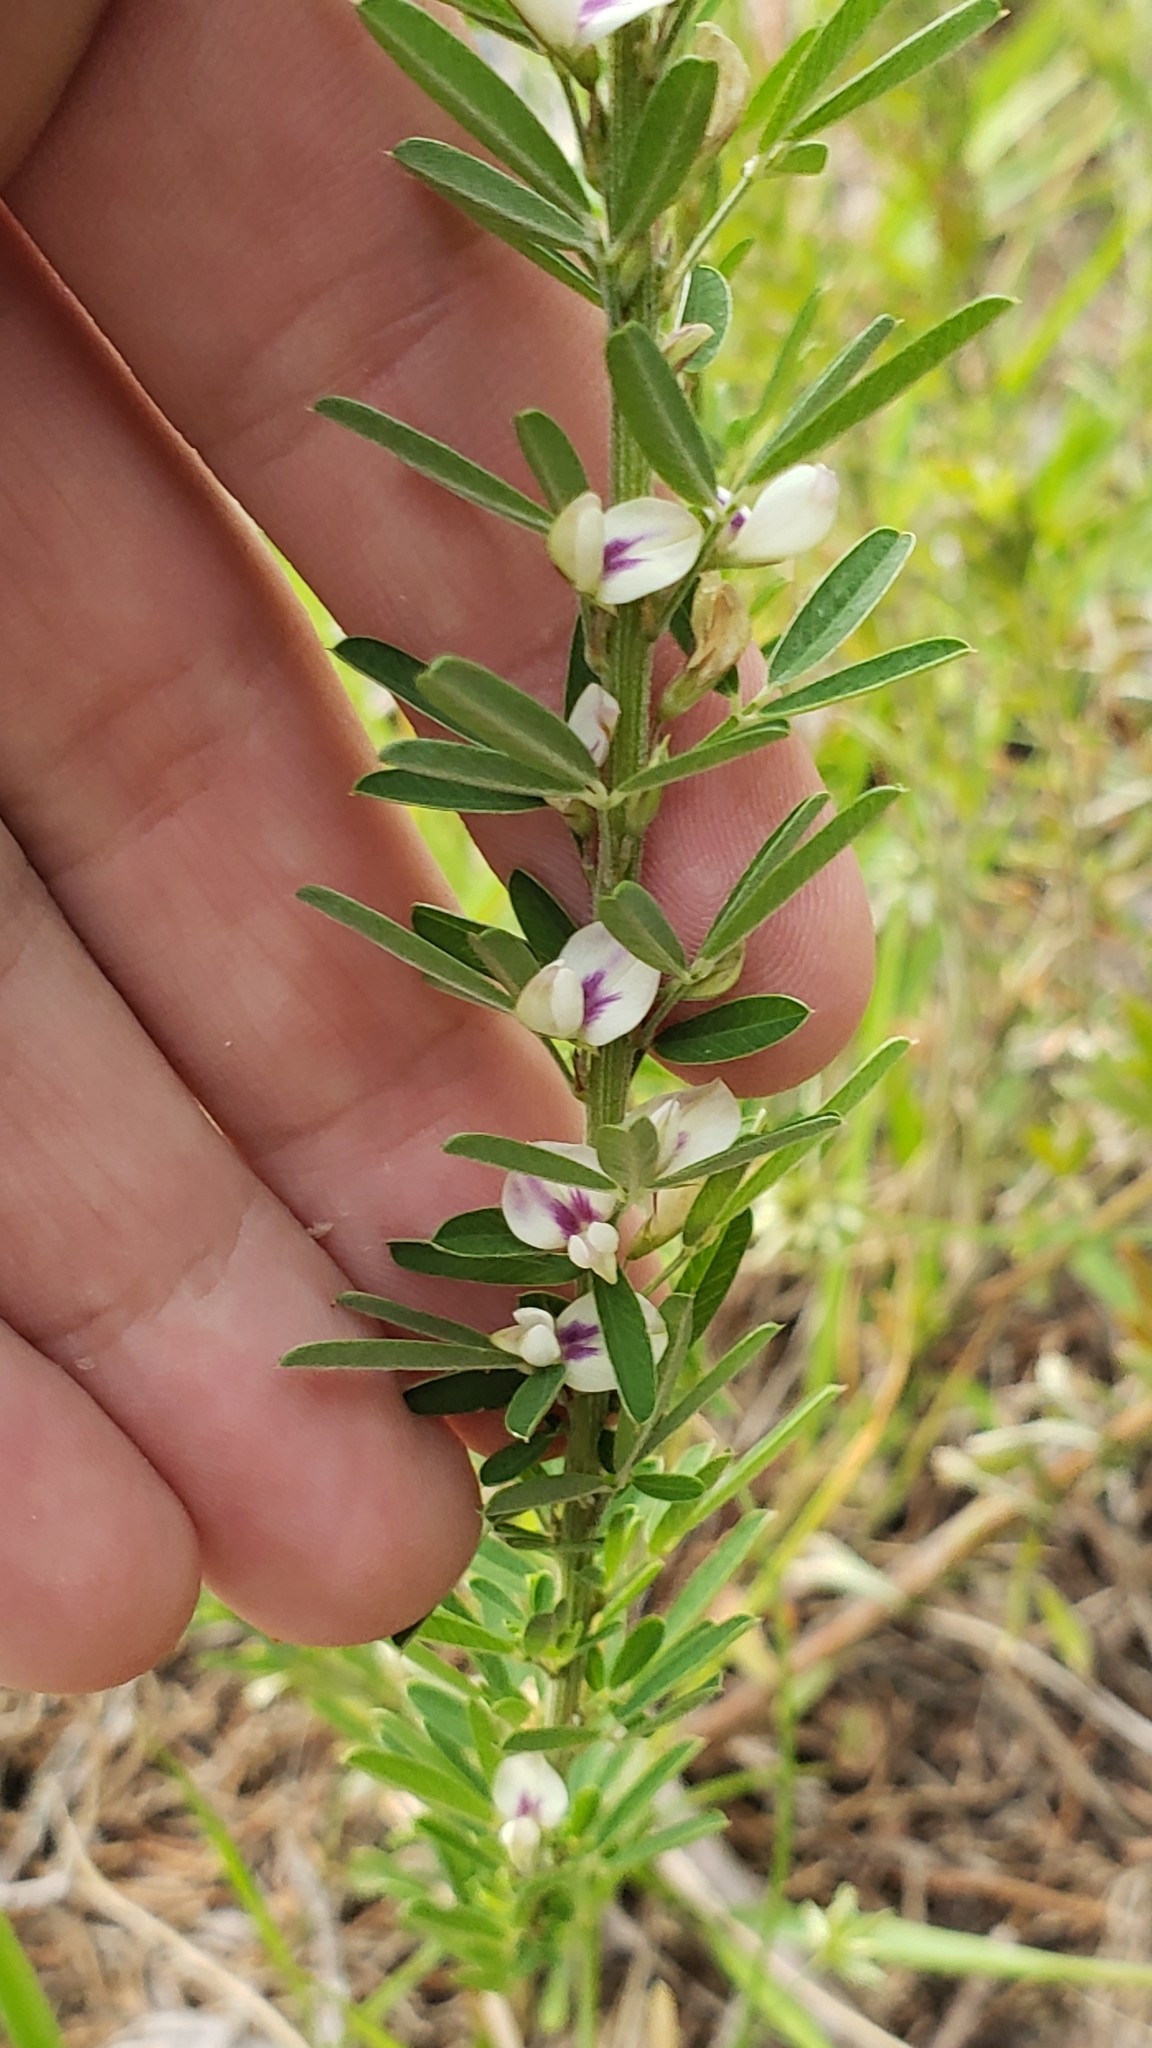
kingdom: Plantae
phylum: Tracheophyta
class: Magnoliopsida
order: Fabales
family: Fabaceae
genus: Lespedeza
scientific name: Lespedeza cuneata
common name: Chinese bush-clover
